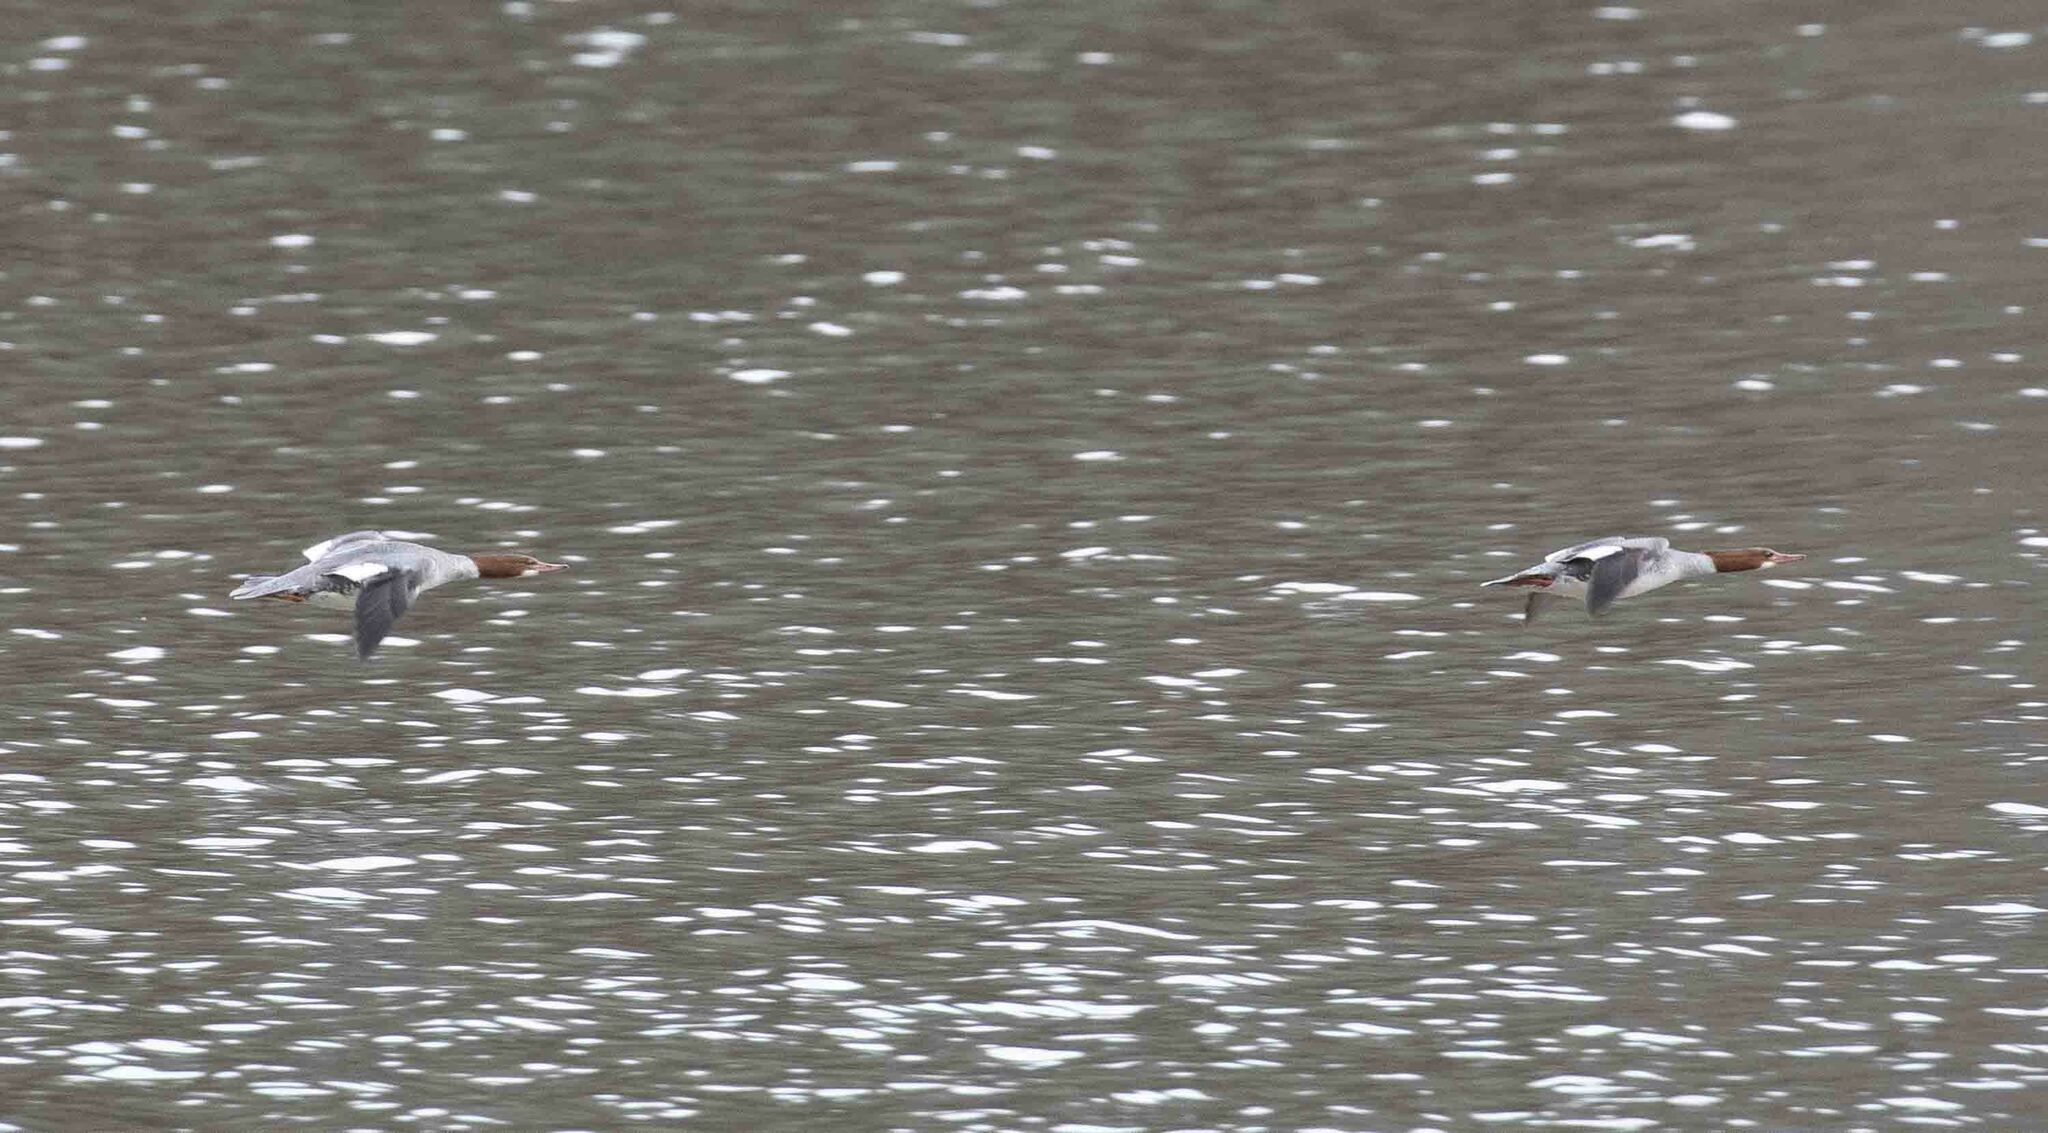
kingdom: Animalia
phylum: Chordata
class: Aves
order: Anseriformes
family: Anatidae
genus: Mergus
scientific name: Mergus merganser
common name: Common merganser
